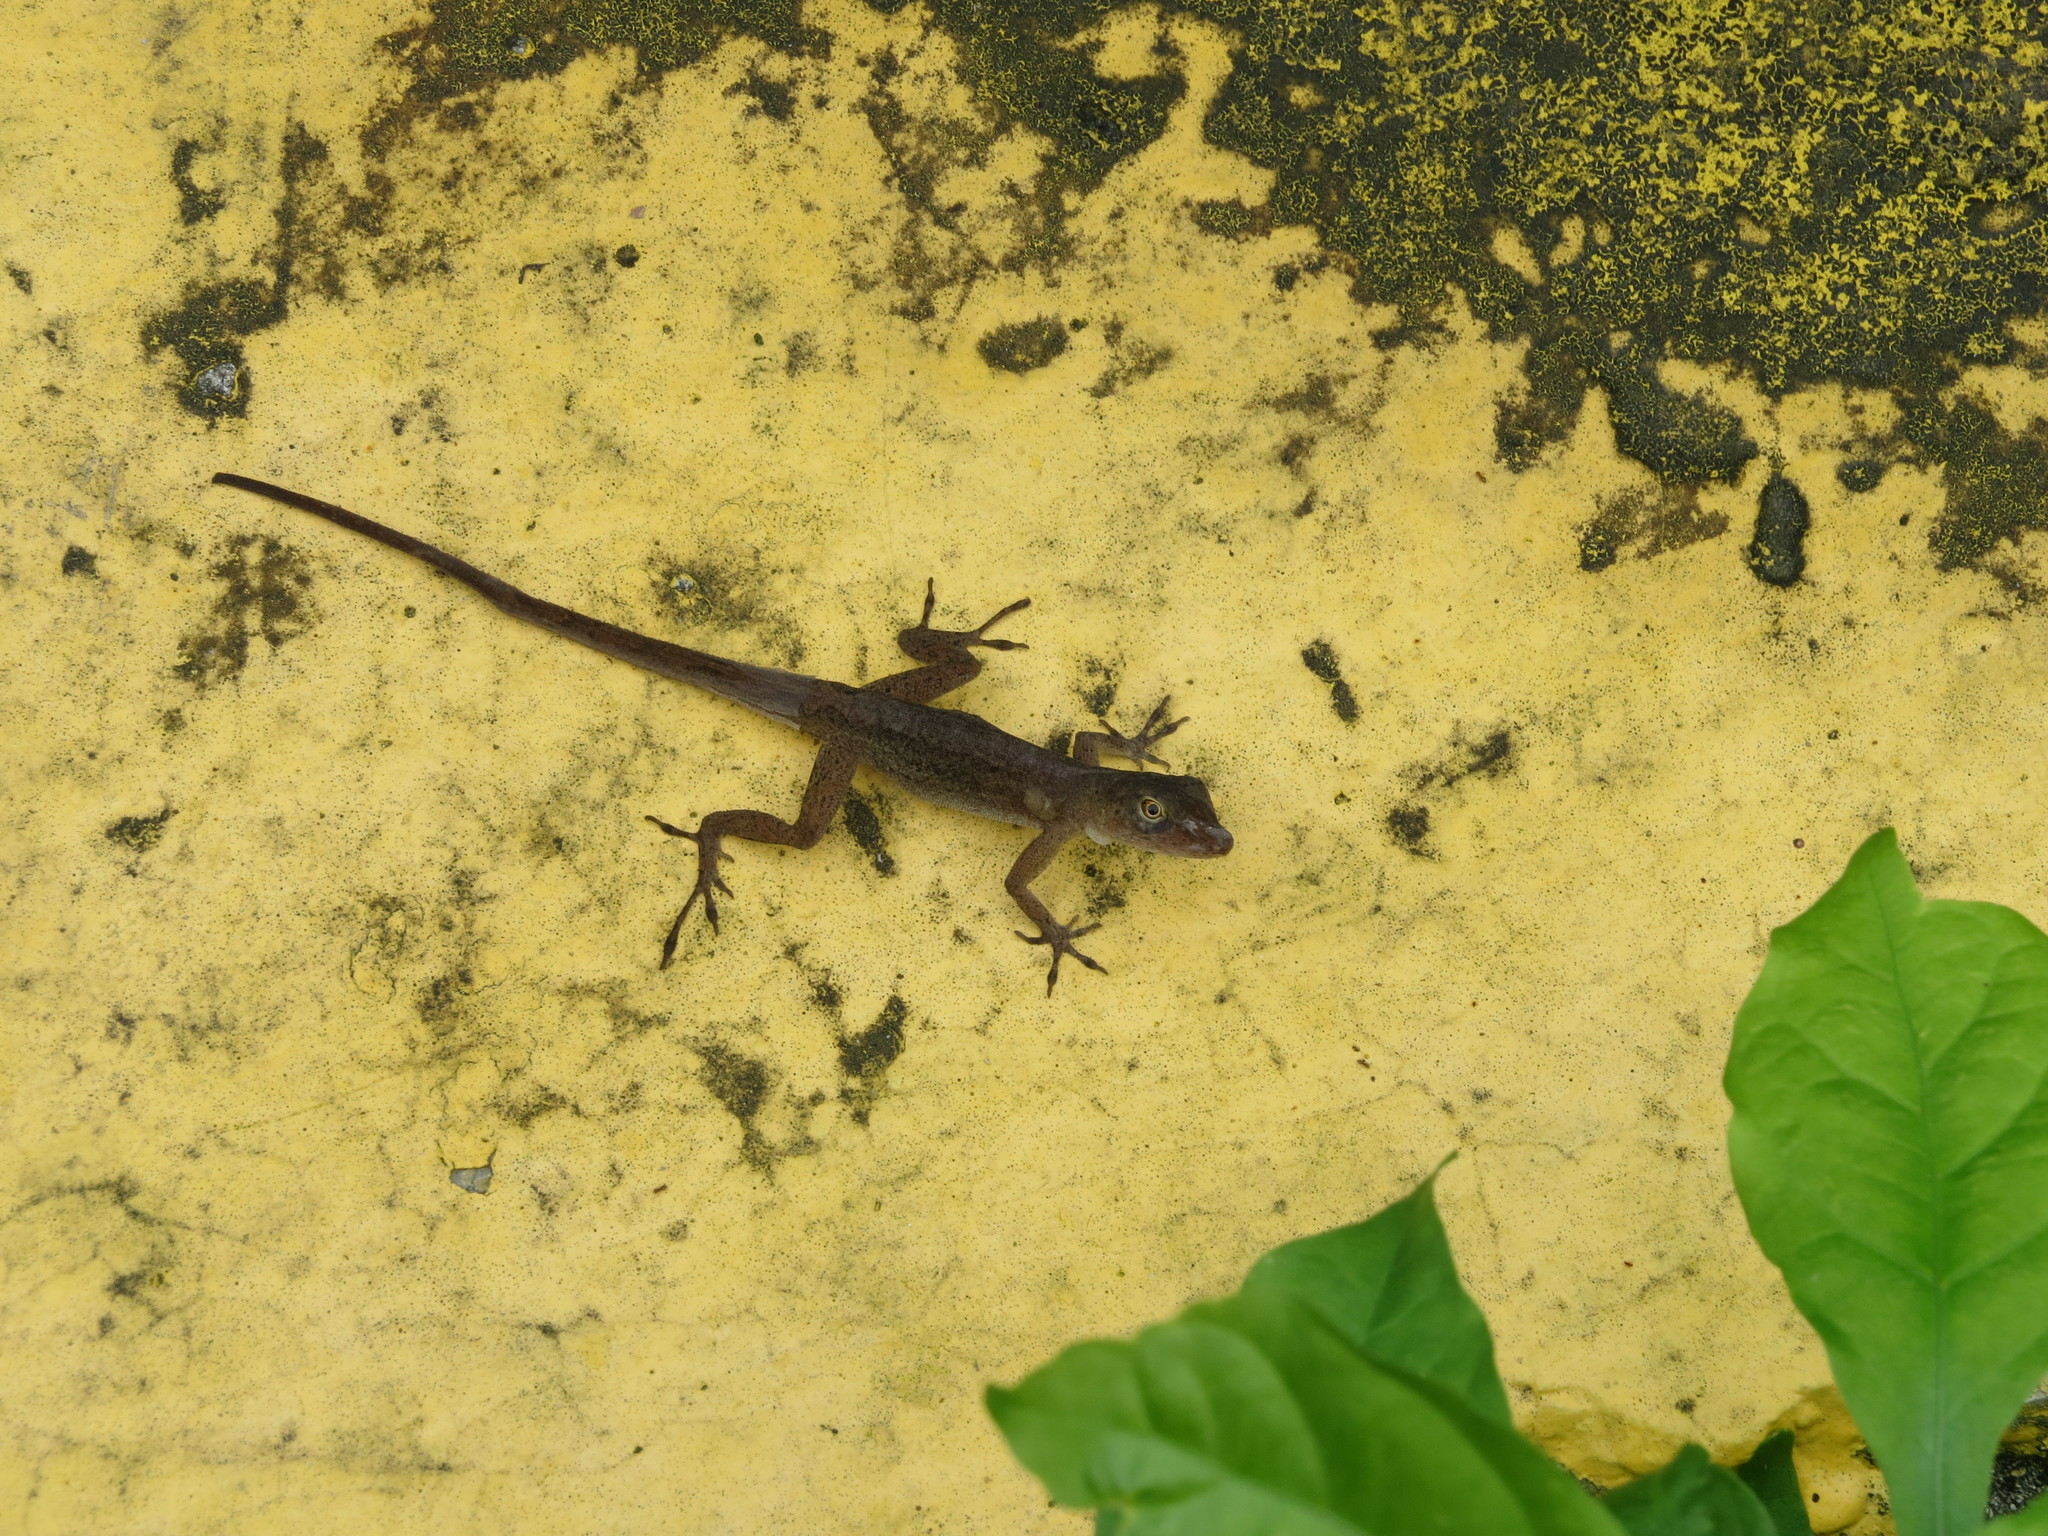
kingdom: Animalia
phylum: Chordata
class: Squamata
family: Dactyloidae
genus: Anolis
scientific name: Anolis pinchoti
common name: Crab cay anole
